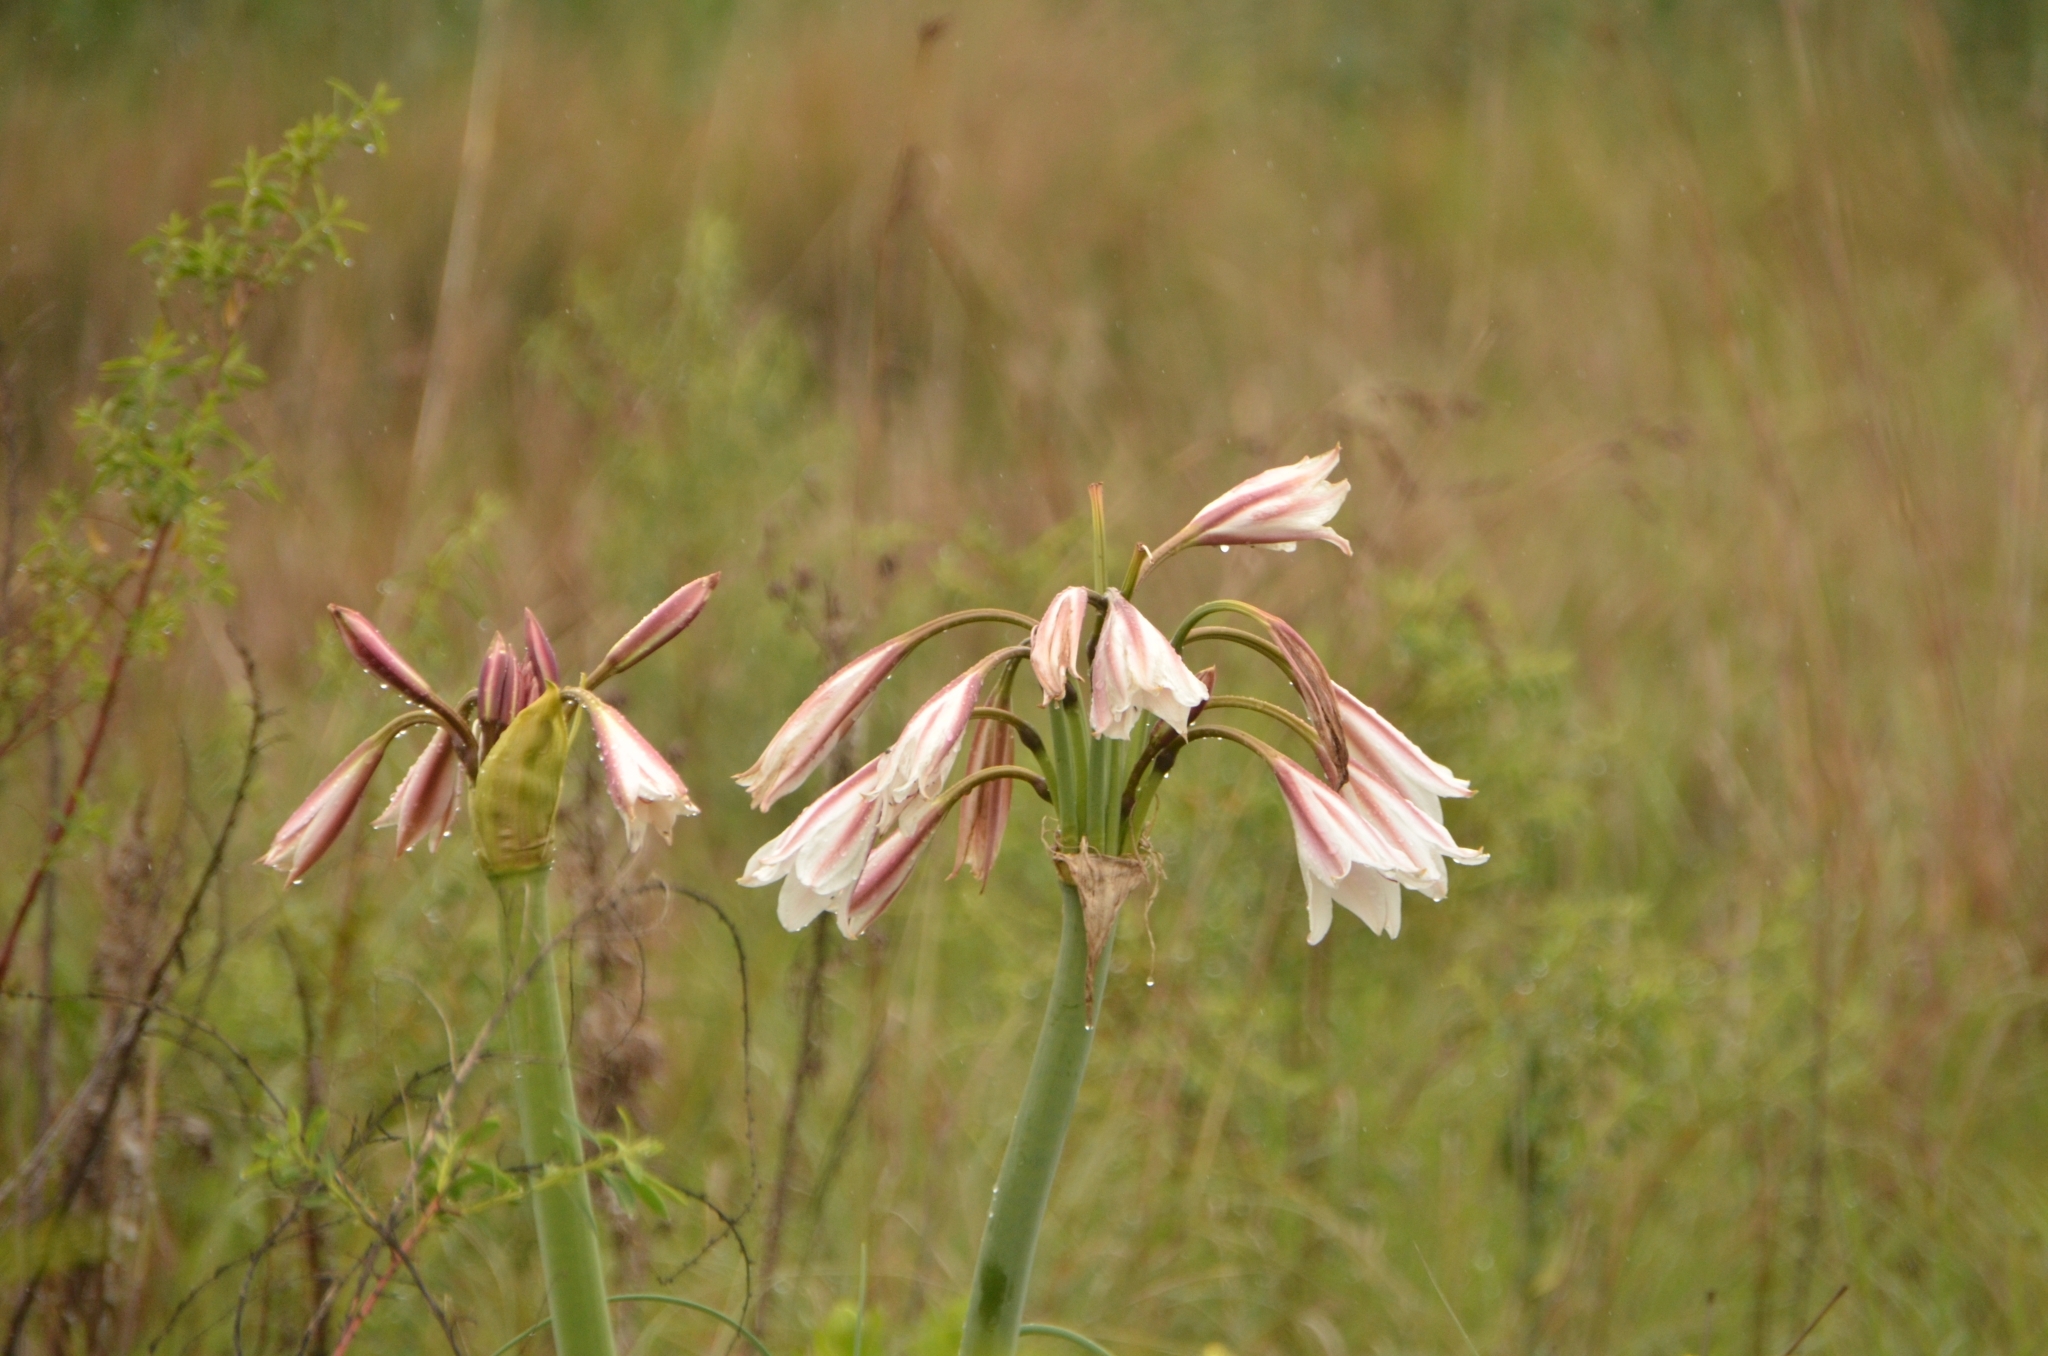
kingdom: Plantae
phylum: Tracheophyta
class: Liliopsida
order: Asparagales
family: Amaryllidaceae
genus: Crinum
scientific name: Crinum bulbispermum
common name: Hardy swamplily
